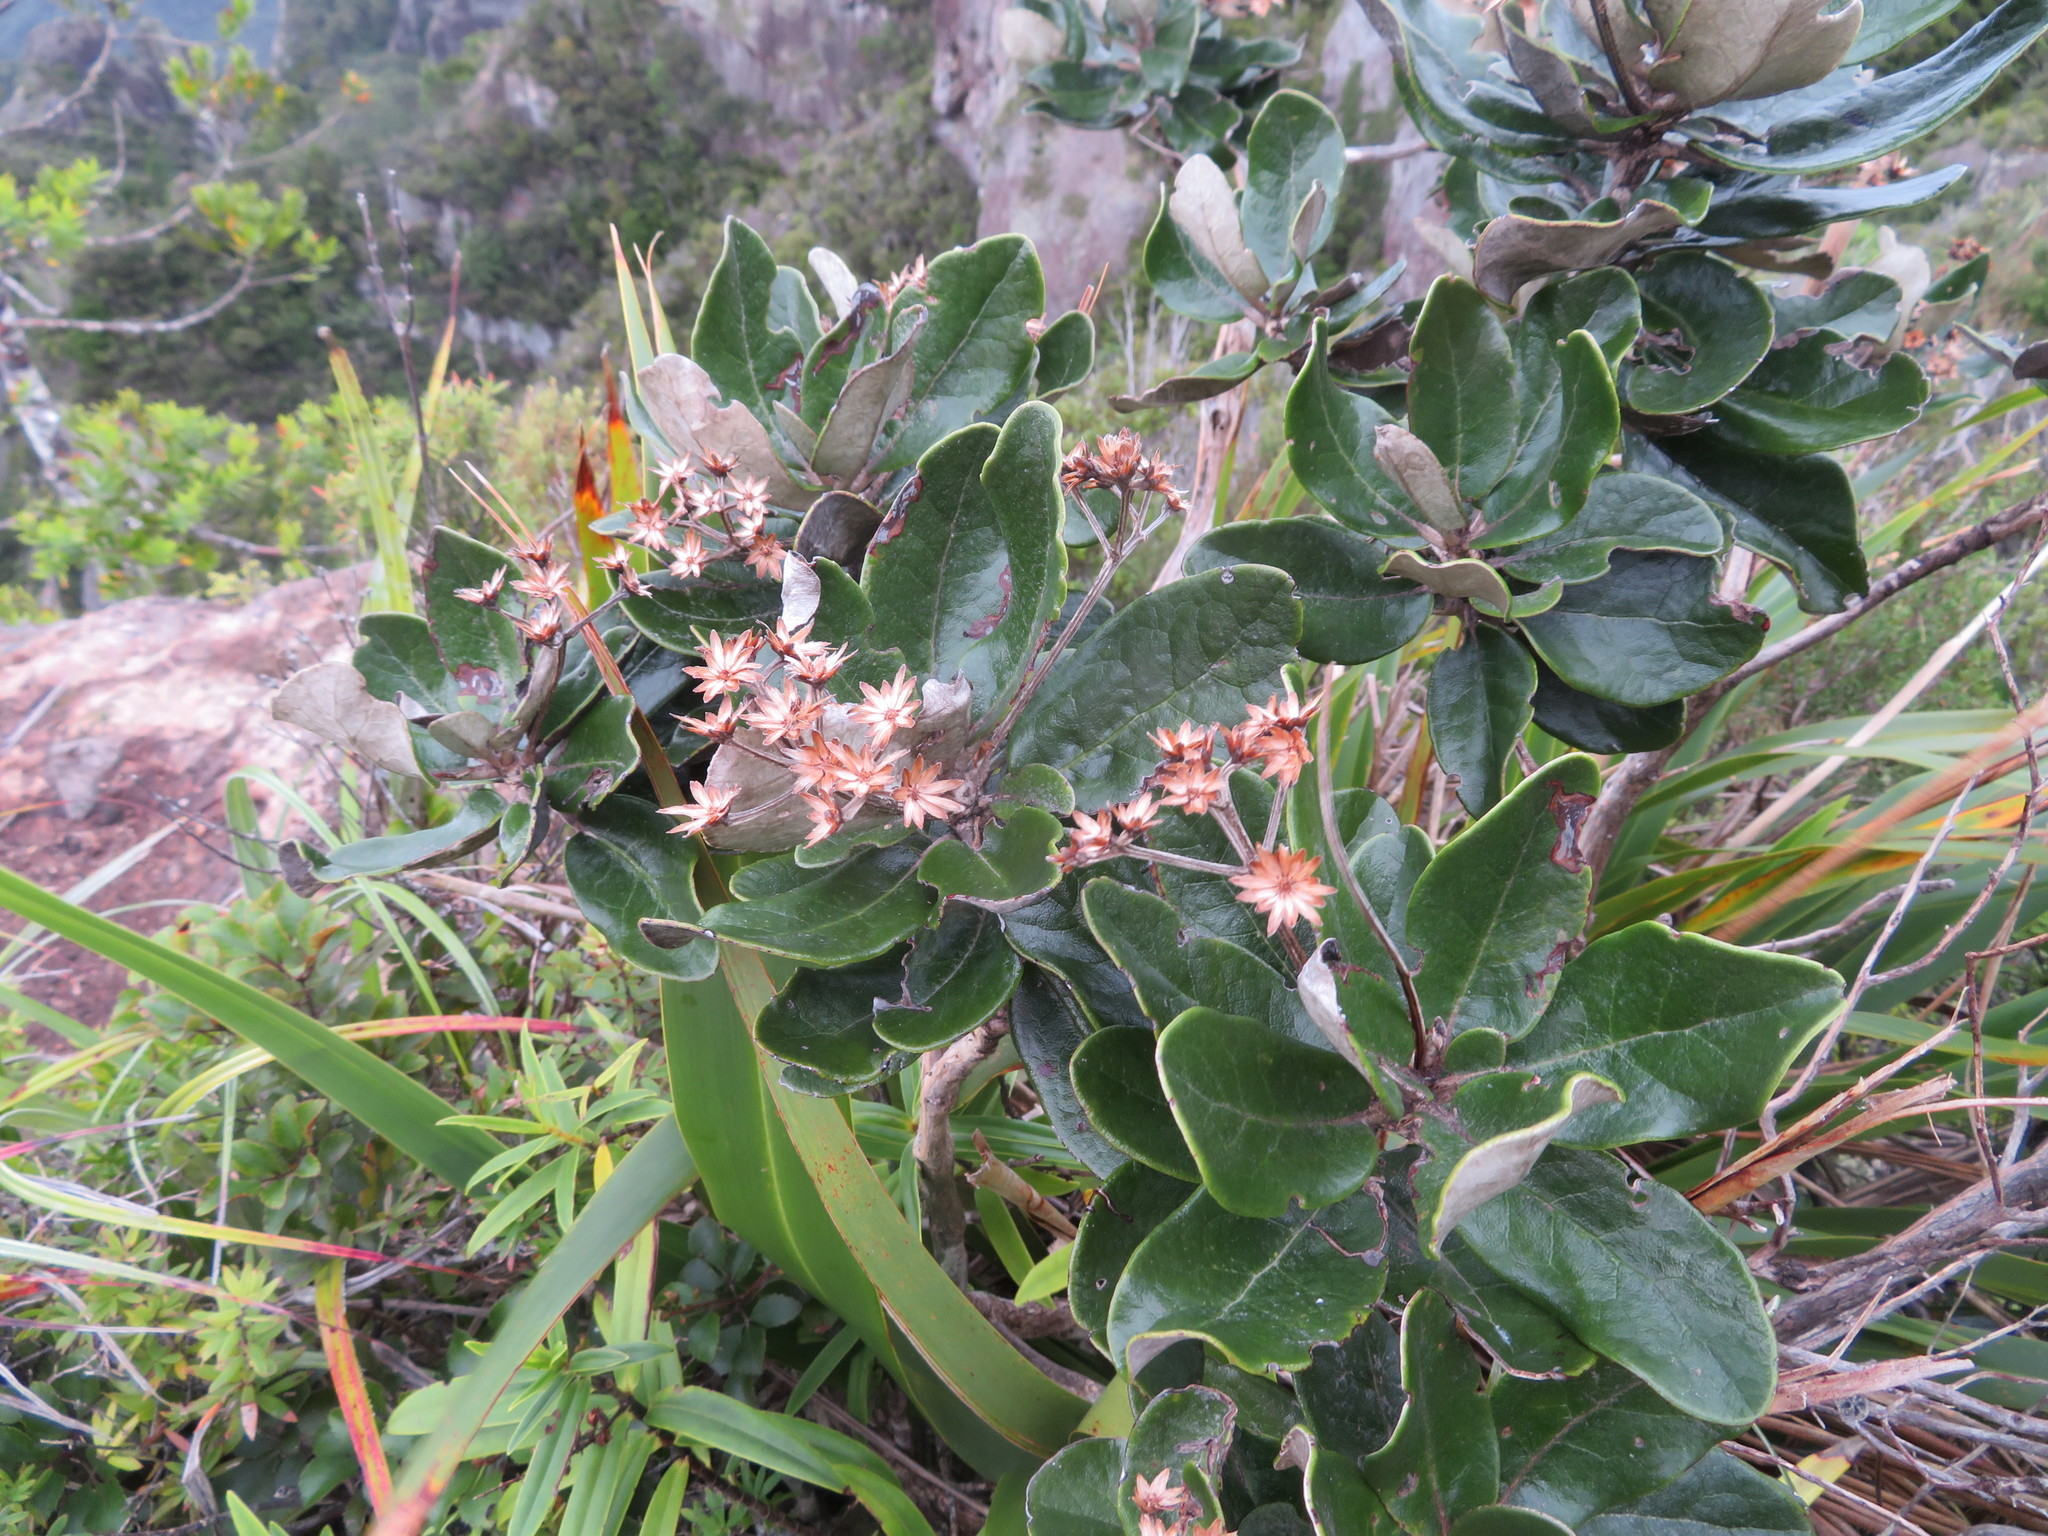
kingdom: Plantae
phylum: Tracheophyta
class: Magnoliopsida
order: Asterales
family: Asteraceae
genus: Olearia
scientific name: Olearia allomii
